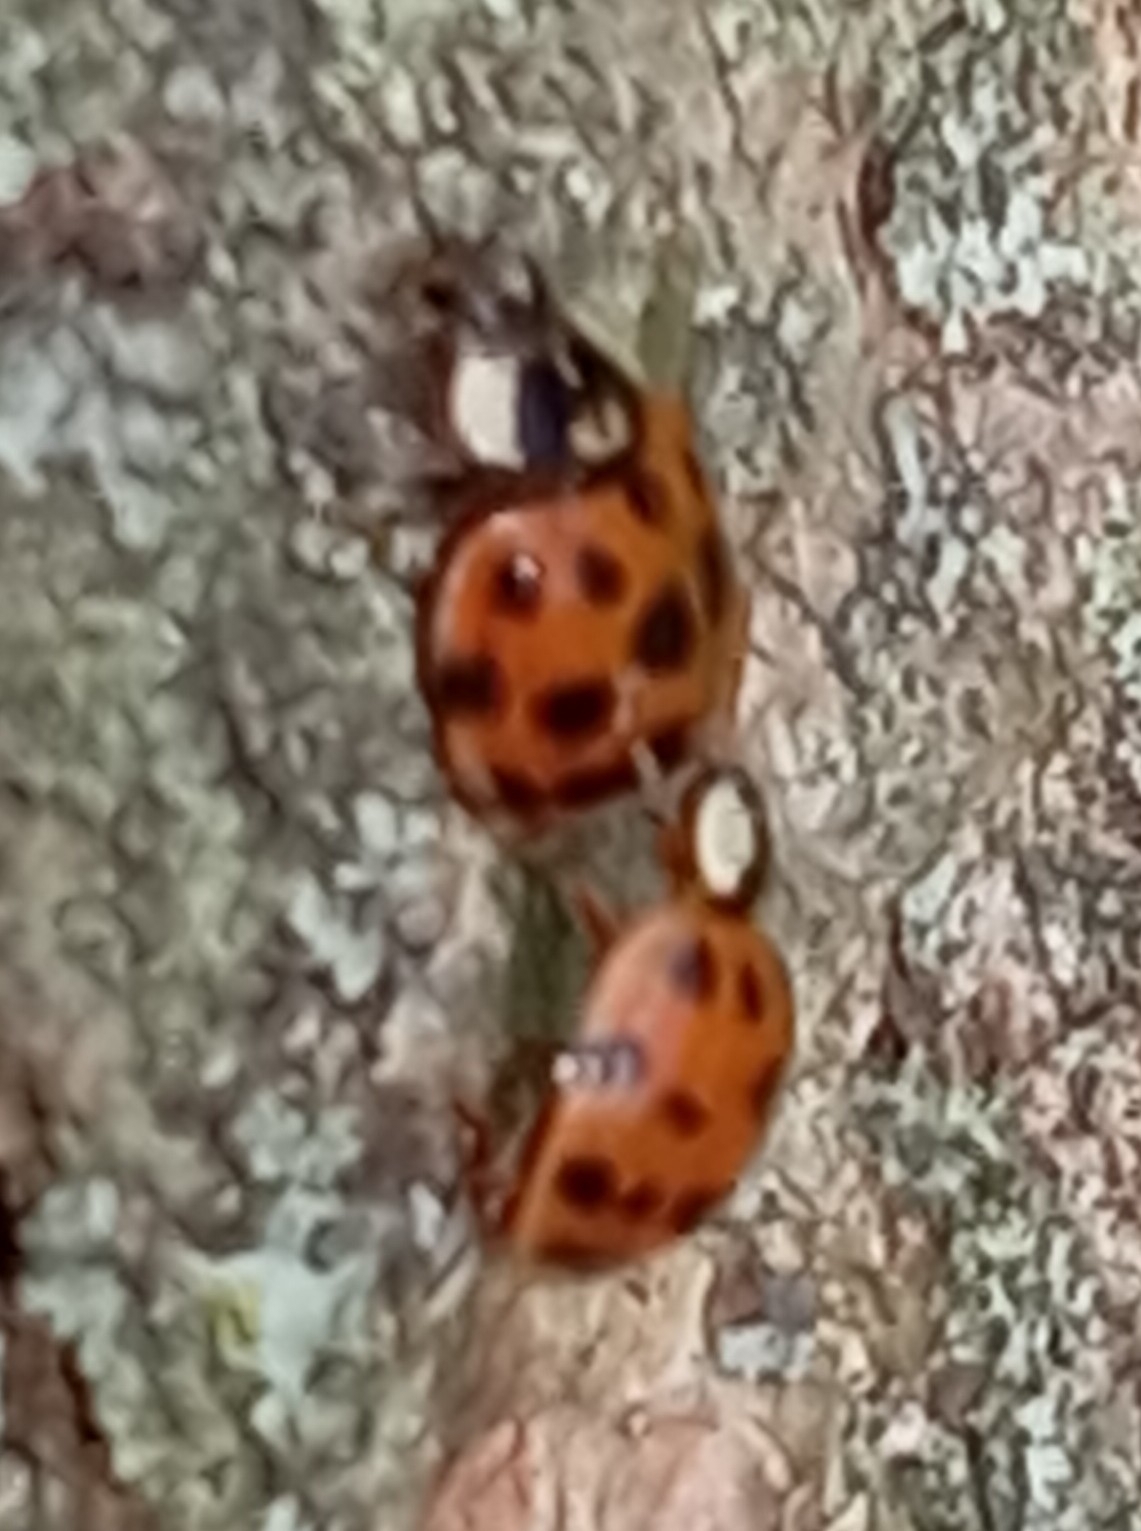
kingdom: Animalia
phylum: Arthropoda
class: Insecta
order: Coleoptera
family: Coccinellidae
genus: Harmonia
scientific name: Harmonia axyridis
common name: Harlequin ladybird
